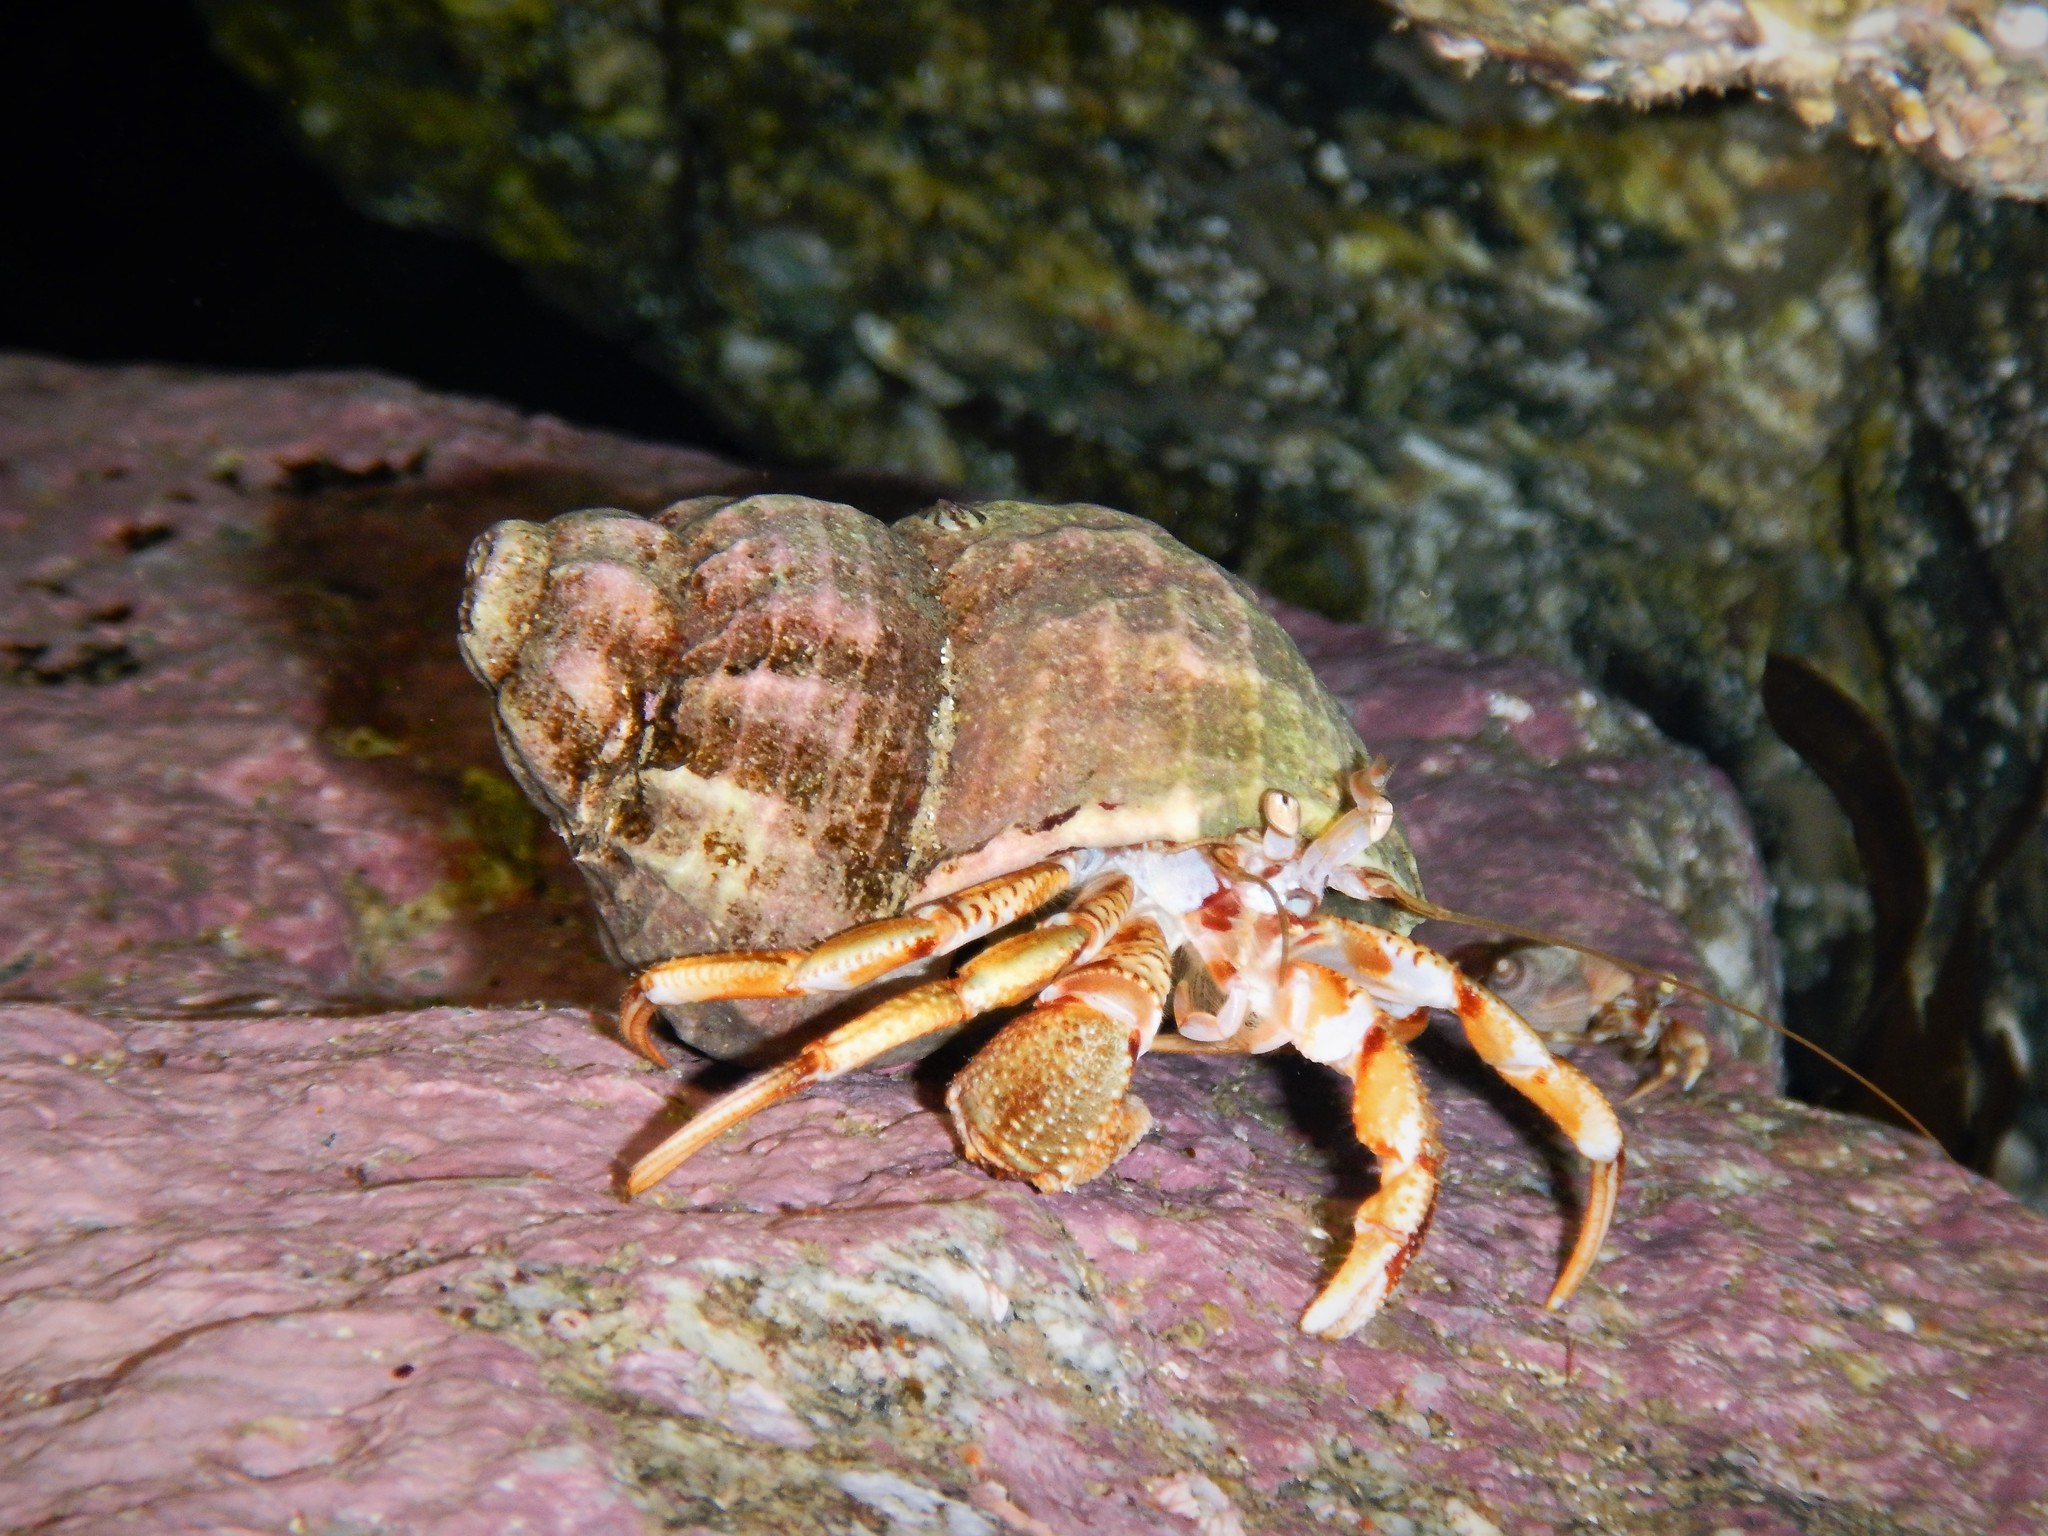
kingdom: Animalia
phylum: Arthropoda
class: Malacostraca
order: Decapoda
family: Paguridae
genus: Pagurus
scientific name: Pagurus bernhardus
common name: Hermit crab
